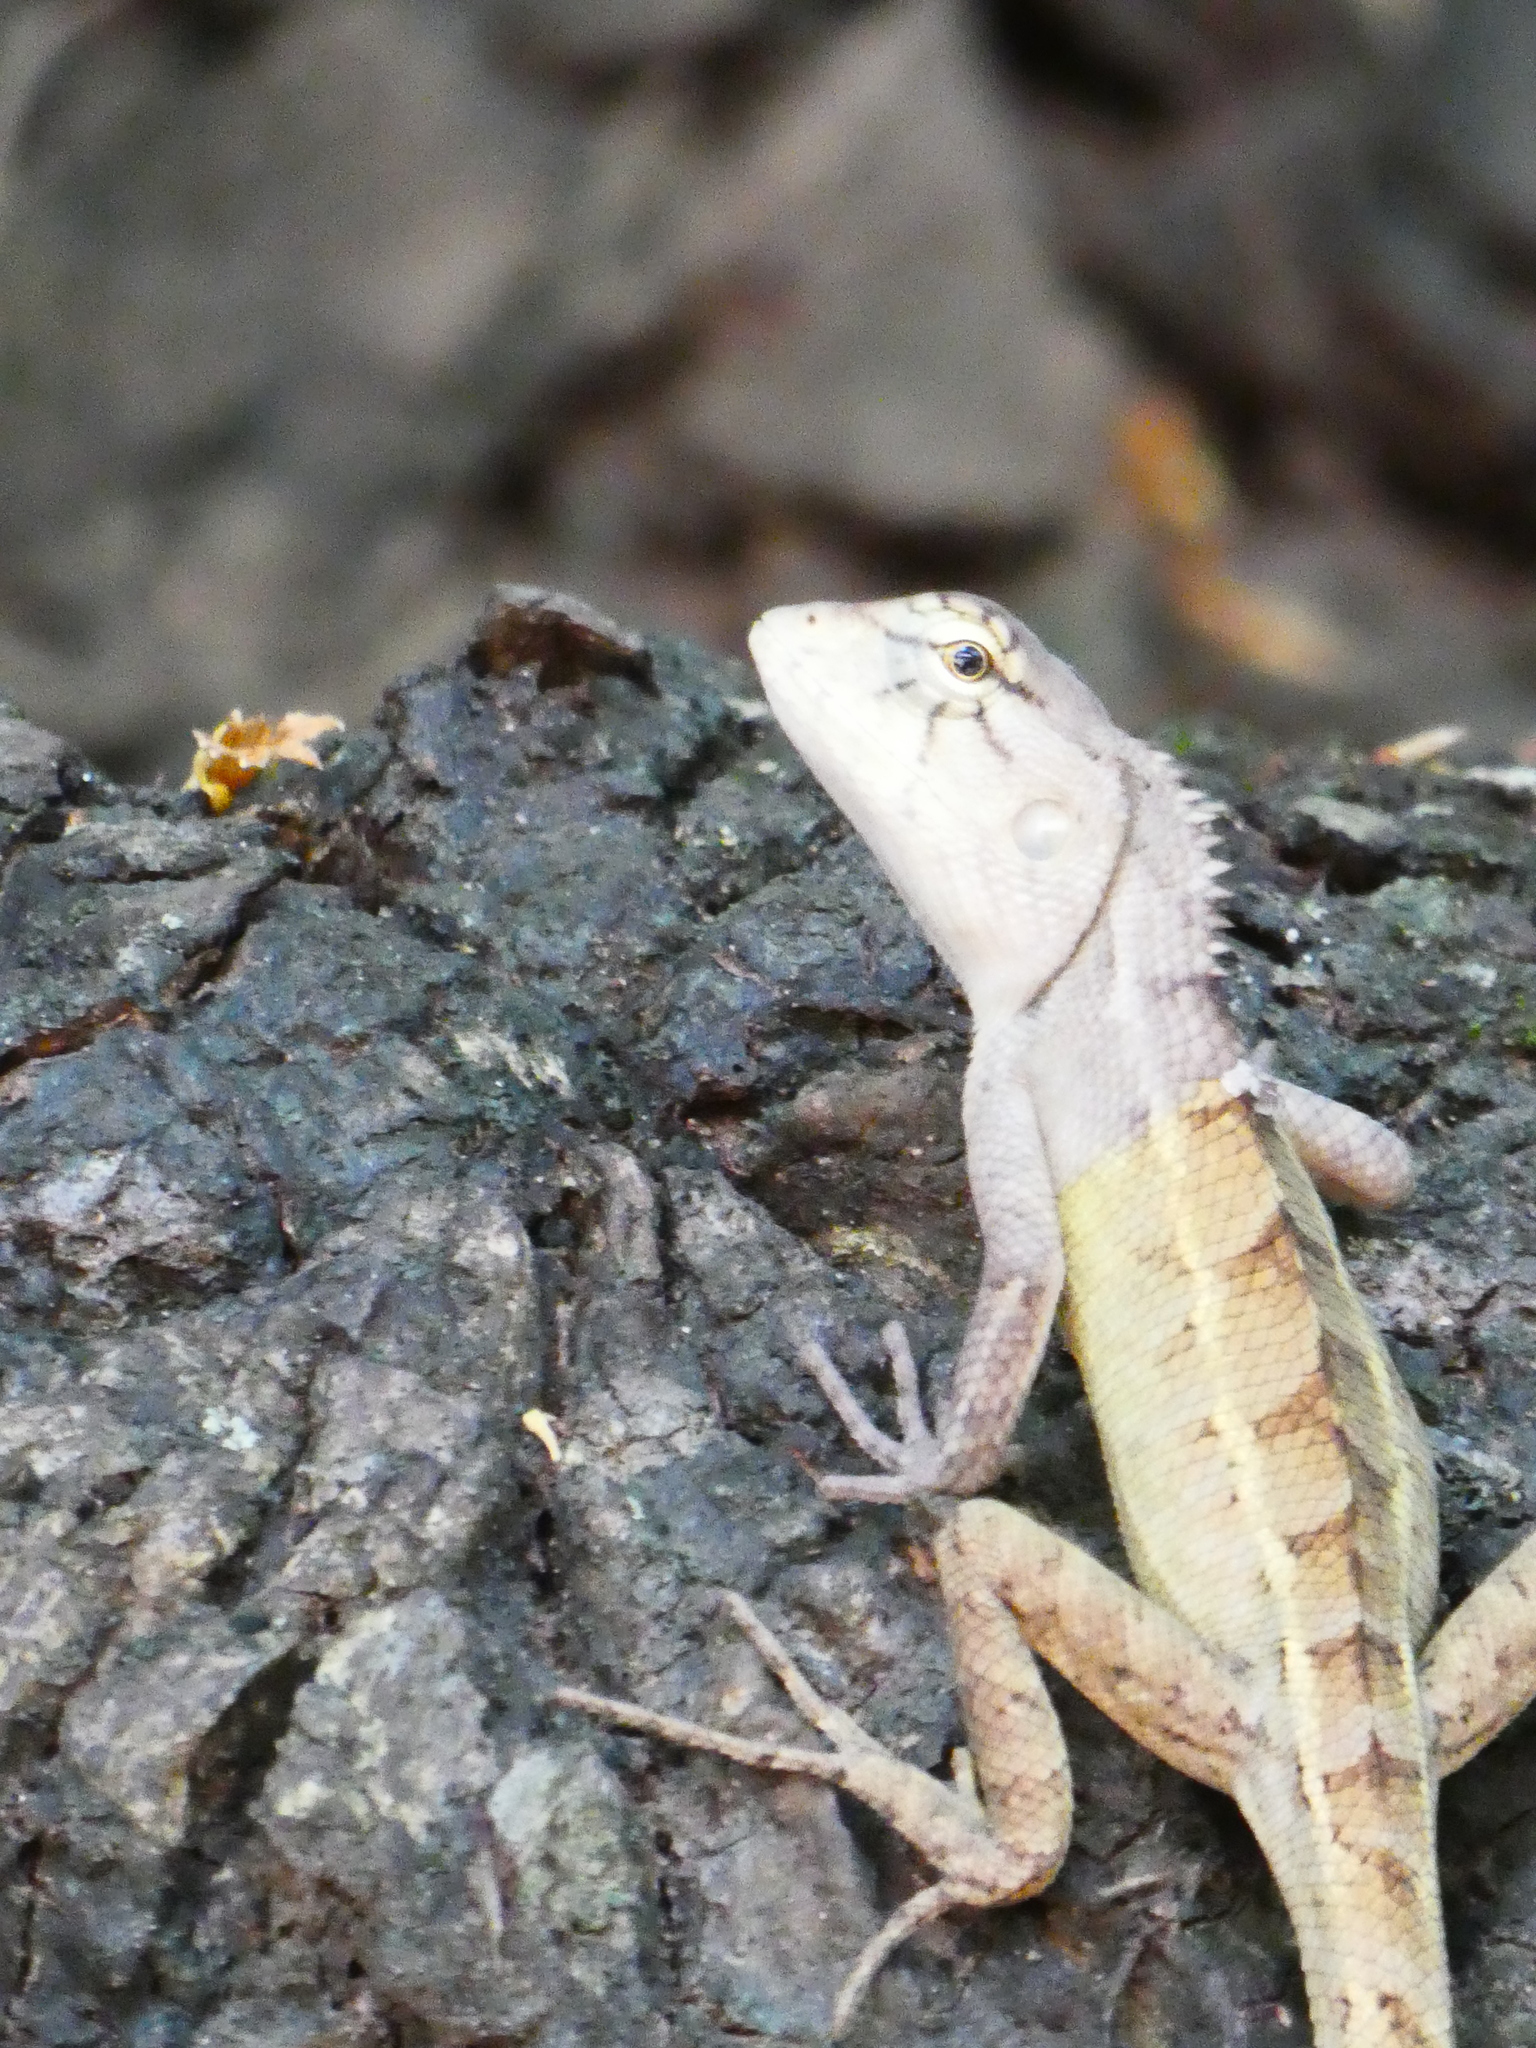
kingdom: Animalia
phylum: Chordata
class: Squamata
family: Agamidae
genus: Calotes
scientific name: Calotes versicolor
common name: Oriental garden lizard
